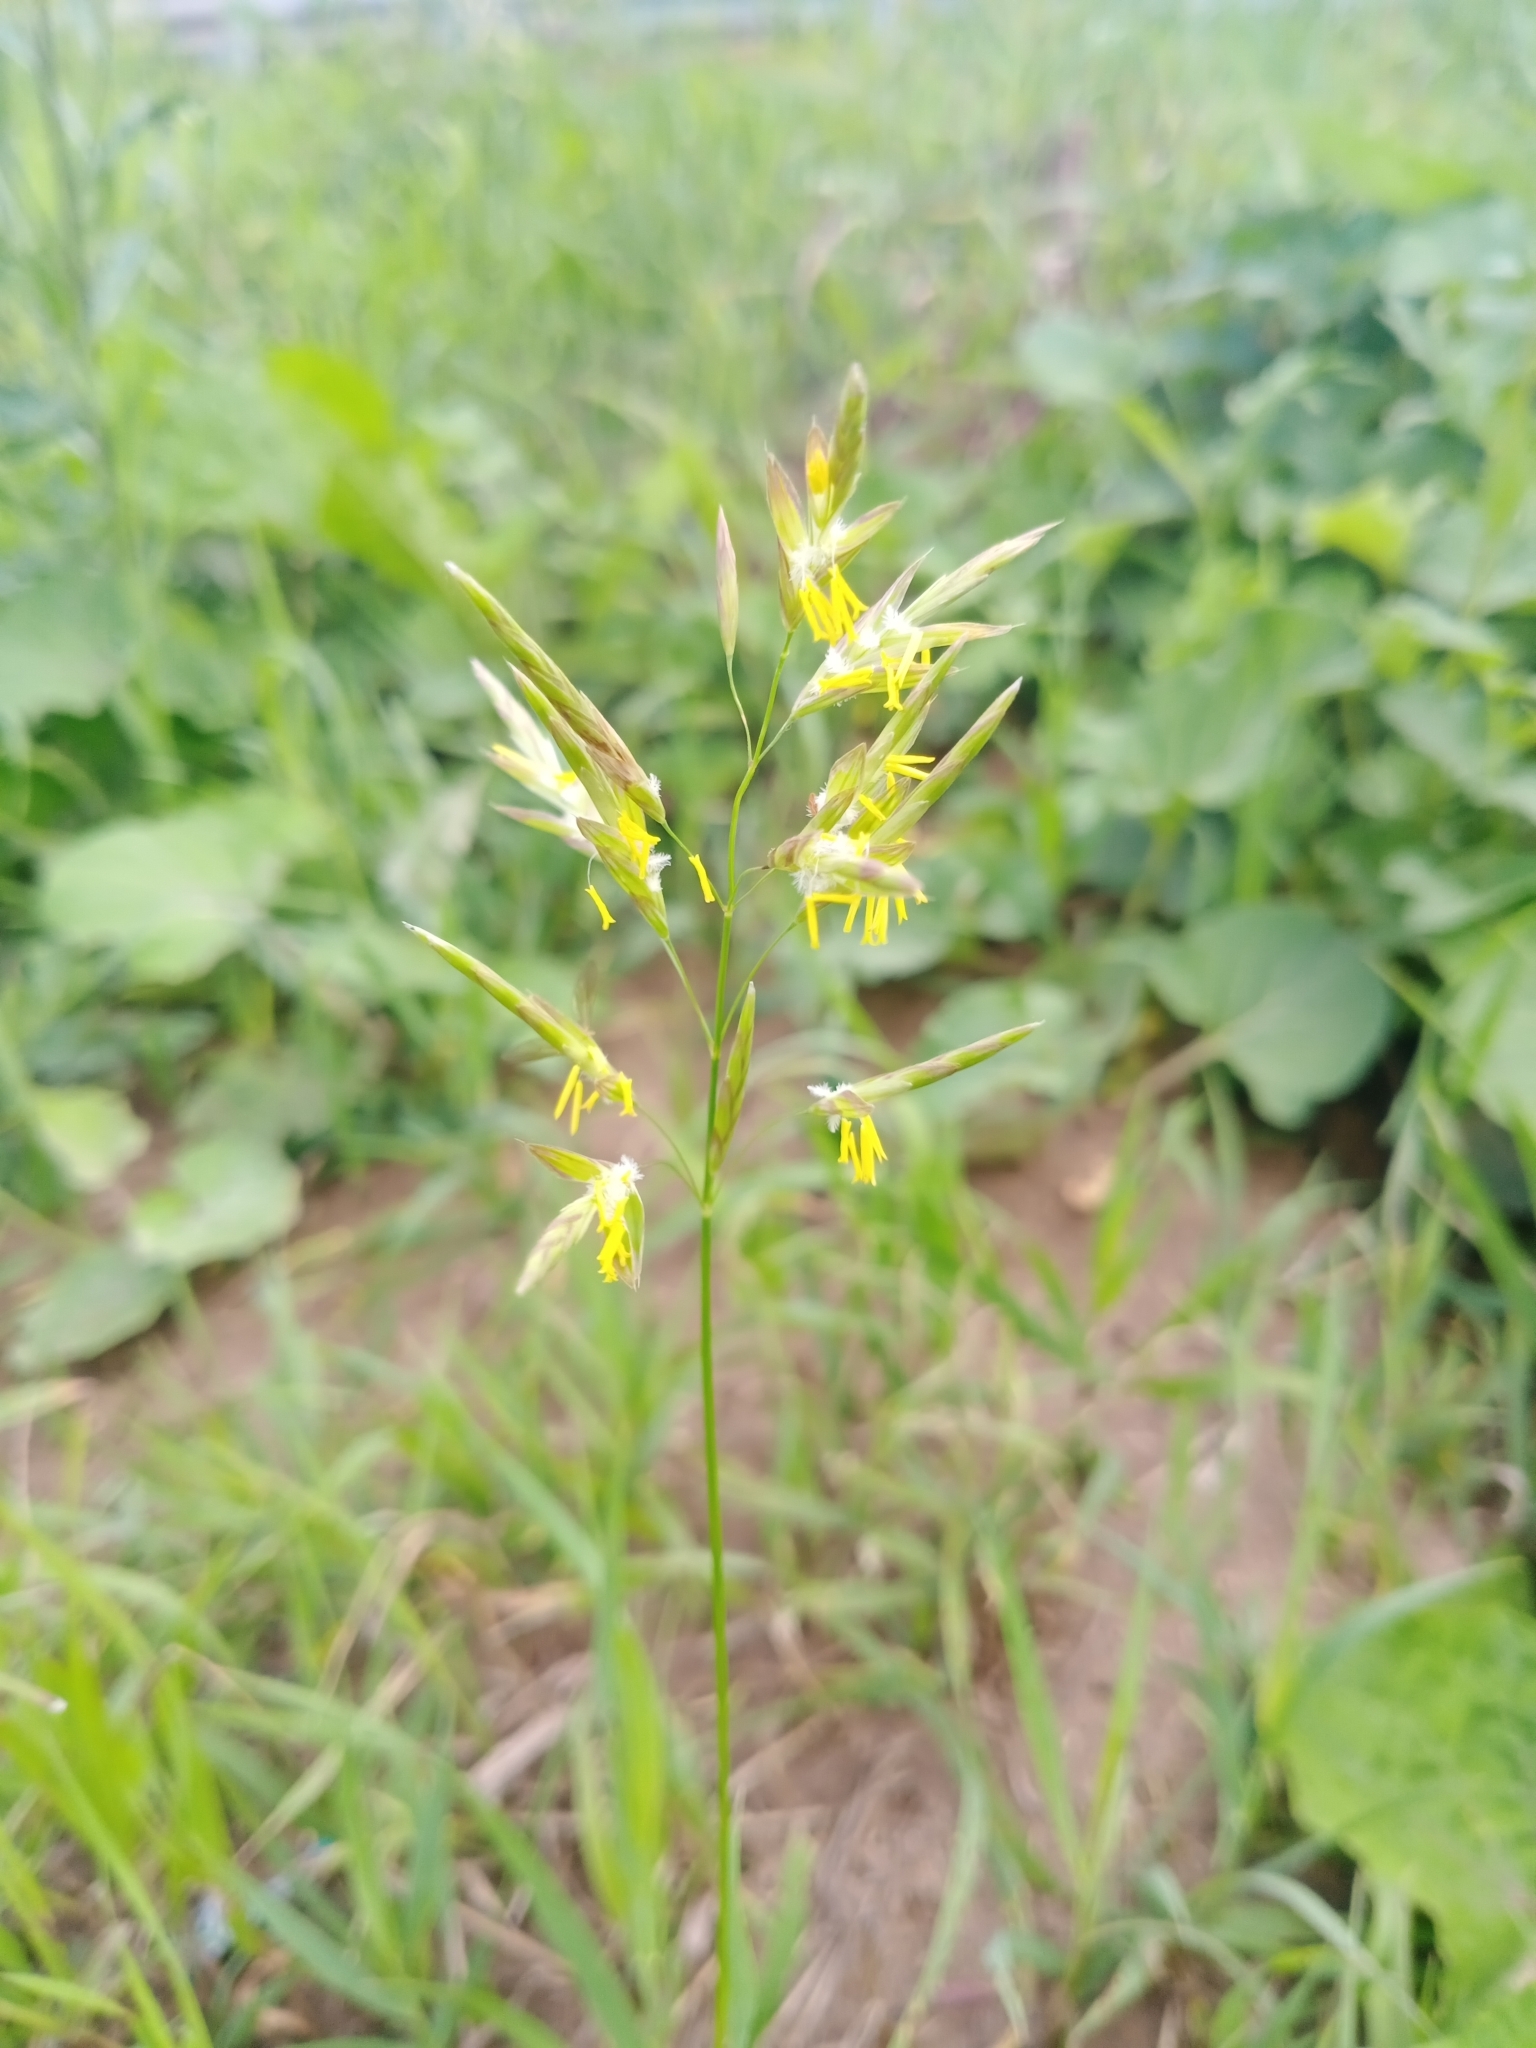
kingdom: Plantae
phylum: Tracheophyta
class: Liliopsida
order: Poales
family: Poaceae
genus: Bromus
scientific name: Bromus inermis
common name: Smooth brome
